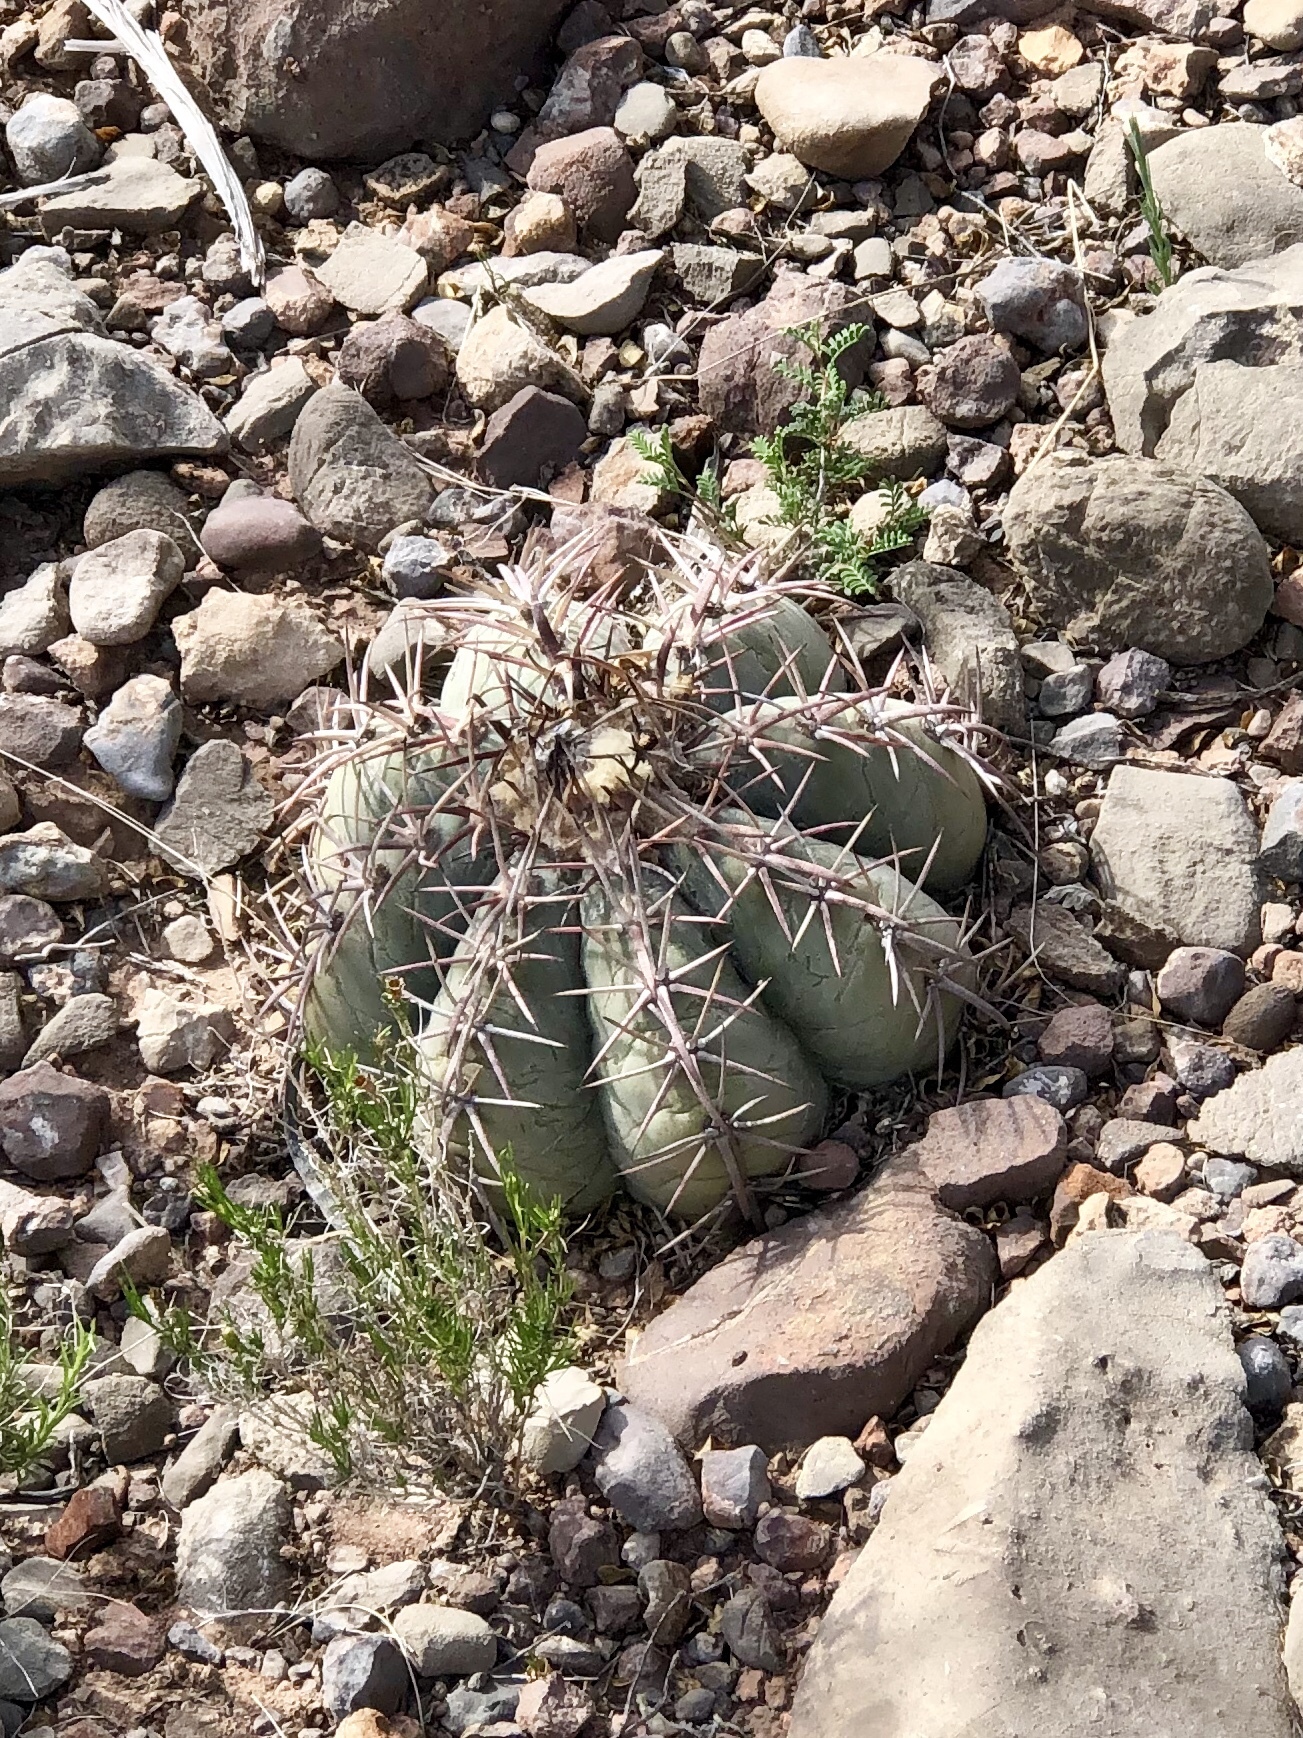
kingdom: Plantae
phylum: Tracheophyta
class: Magnoliopsida
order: Caryophyllales
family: Cactaceae
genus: Echinocactus
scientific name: Echinocactus horizonthalonius
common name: Devilshead
